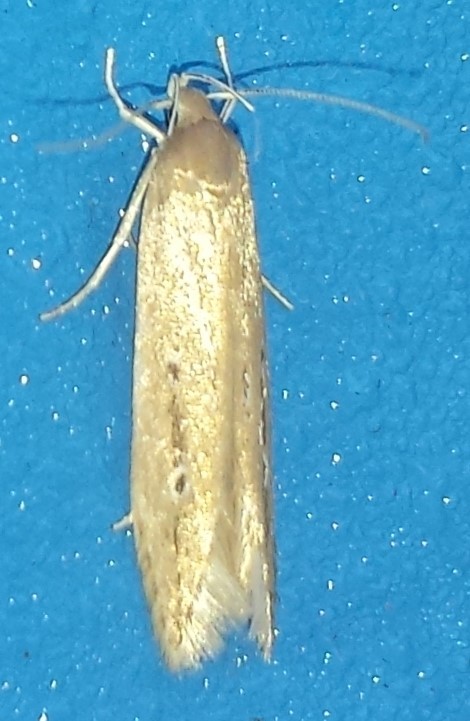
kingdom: Animalia
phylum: Arthropoda
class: Insecta
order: Lepidoptera
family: Cosmopterigidae
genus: Limnaecia
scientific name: Limnaecia phragmitella
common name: Bulrush cosmet
